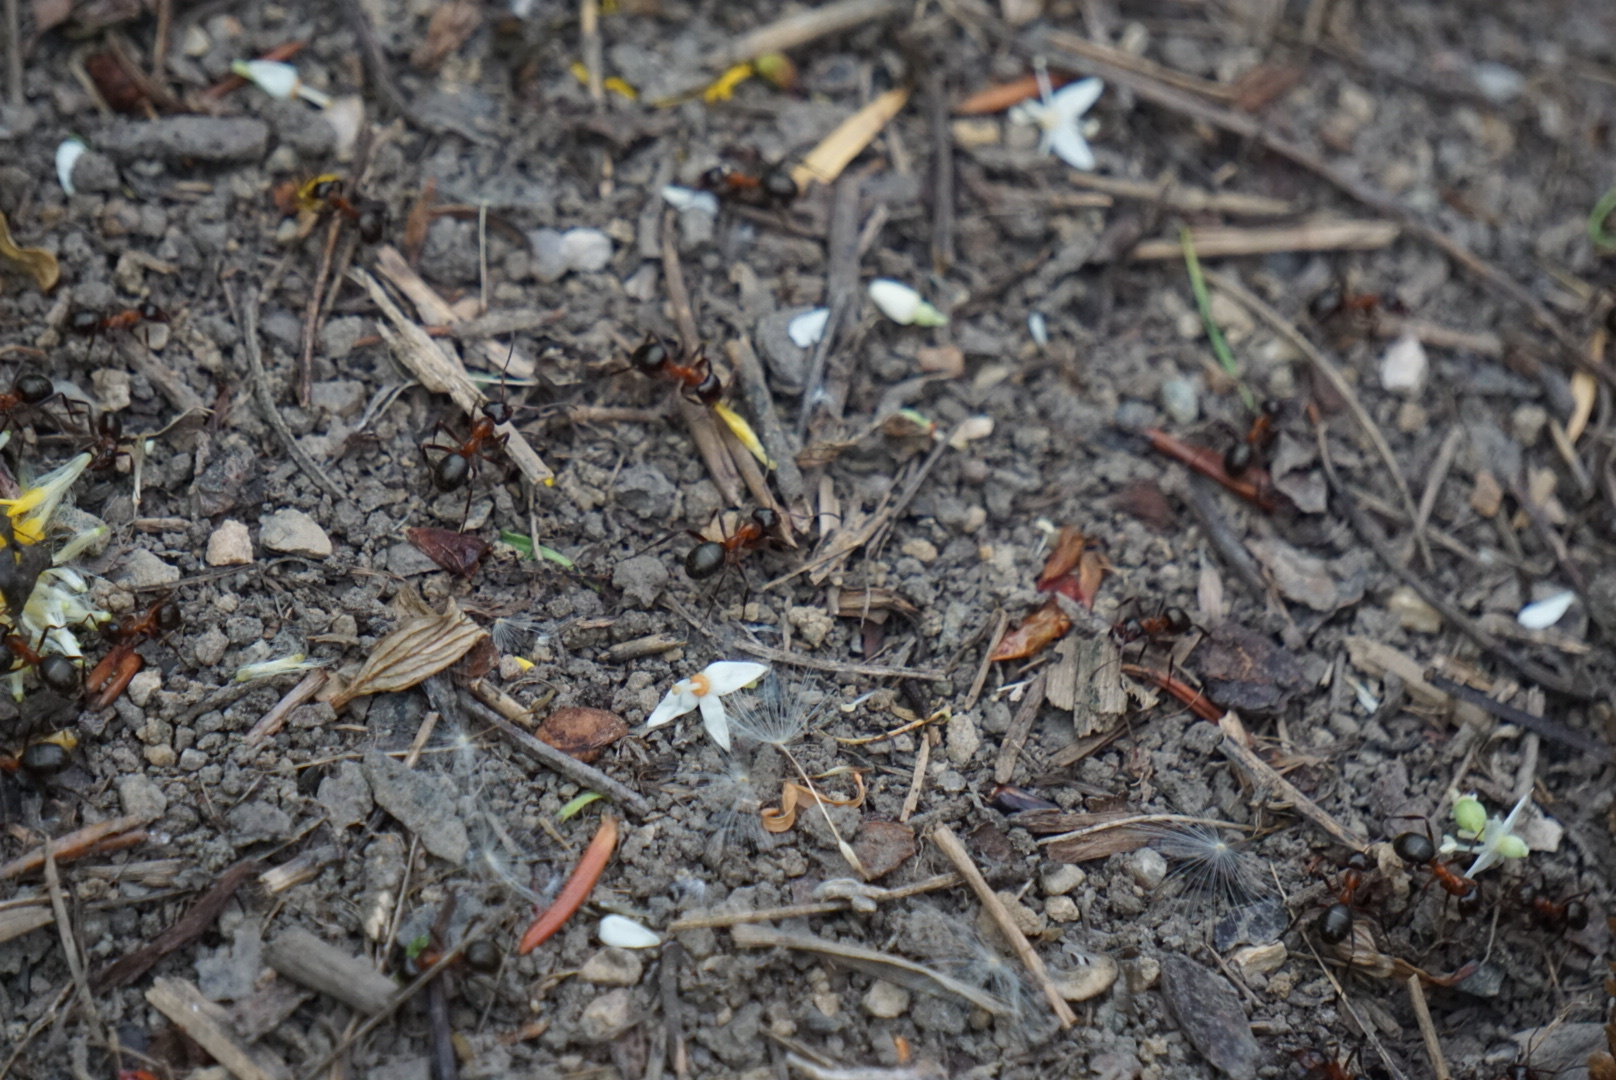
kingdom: Animalia
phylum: Arthropoda
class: Insecta
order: Hymenoptera
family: Formicidae
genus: Formica
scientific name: Formica ulkei
